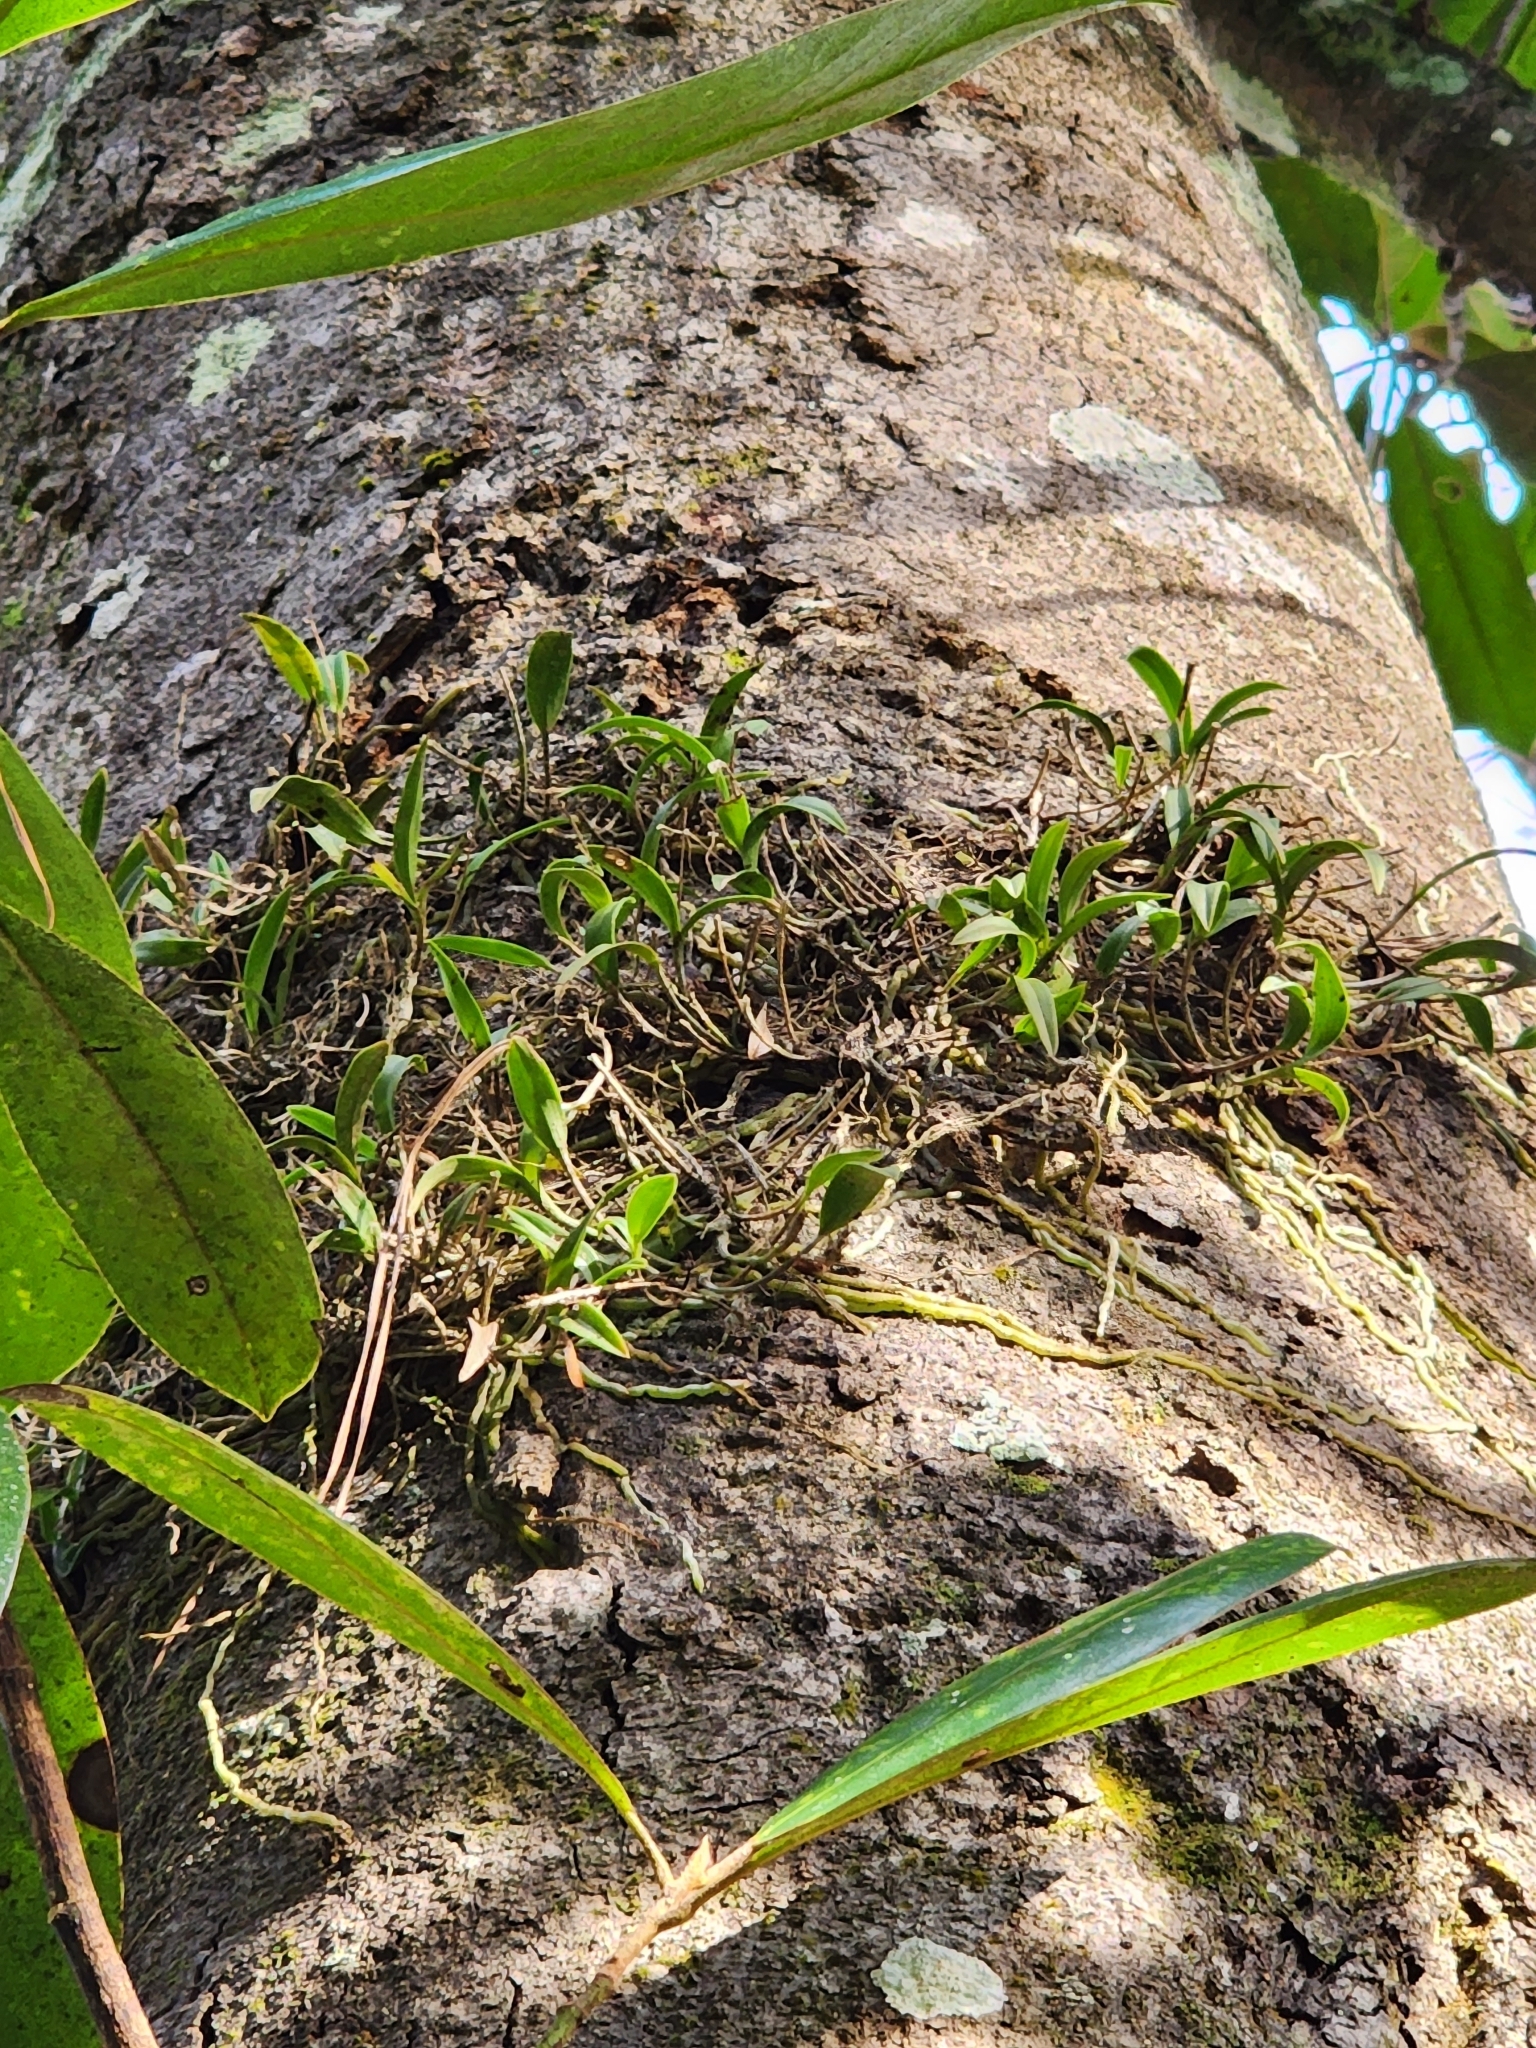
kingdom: Plantae
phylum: Tracheophyta
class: Liliopsida
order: Asparagales
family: Orchidaceae
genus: Epidendrum
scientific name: Epidendrum conopseum
